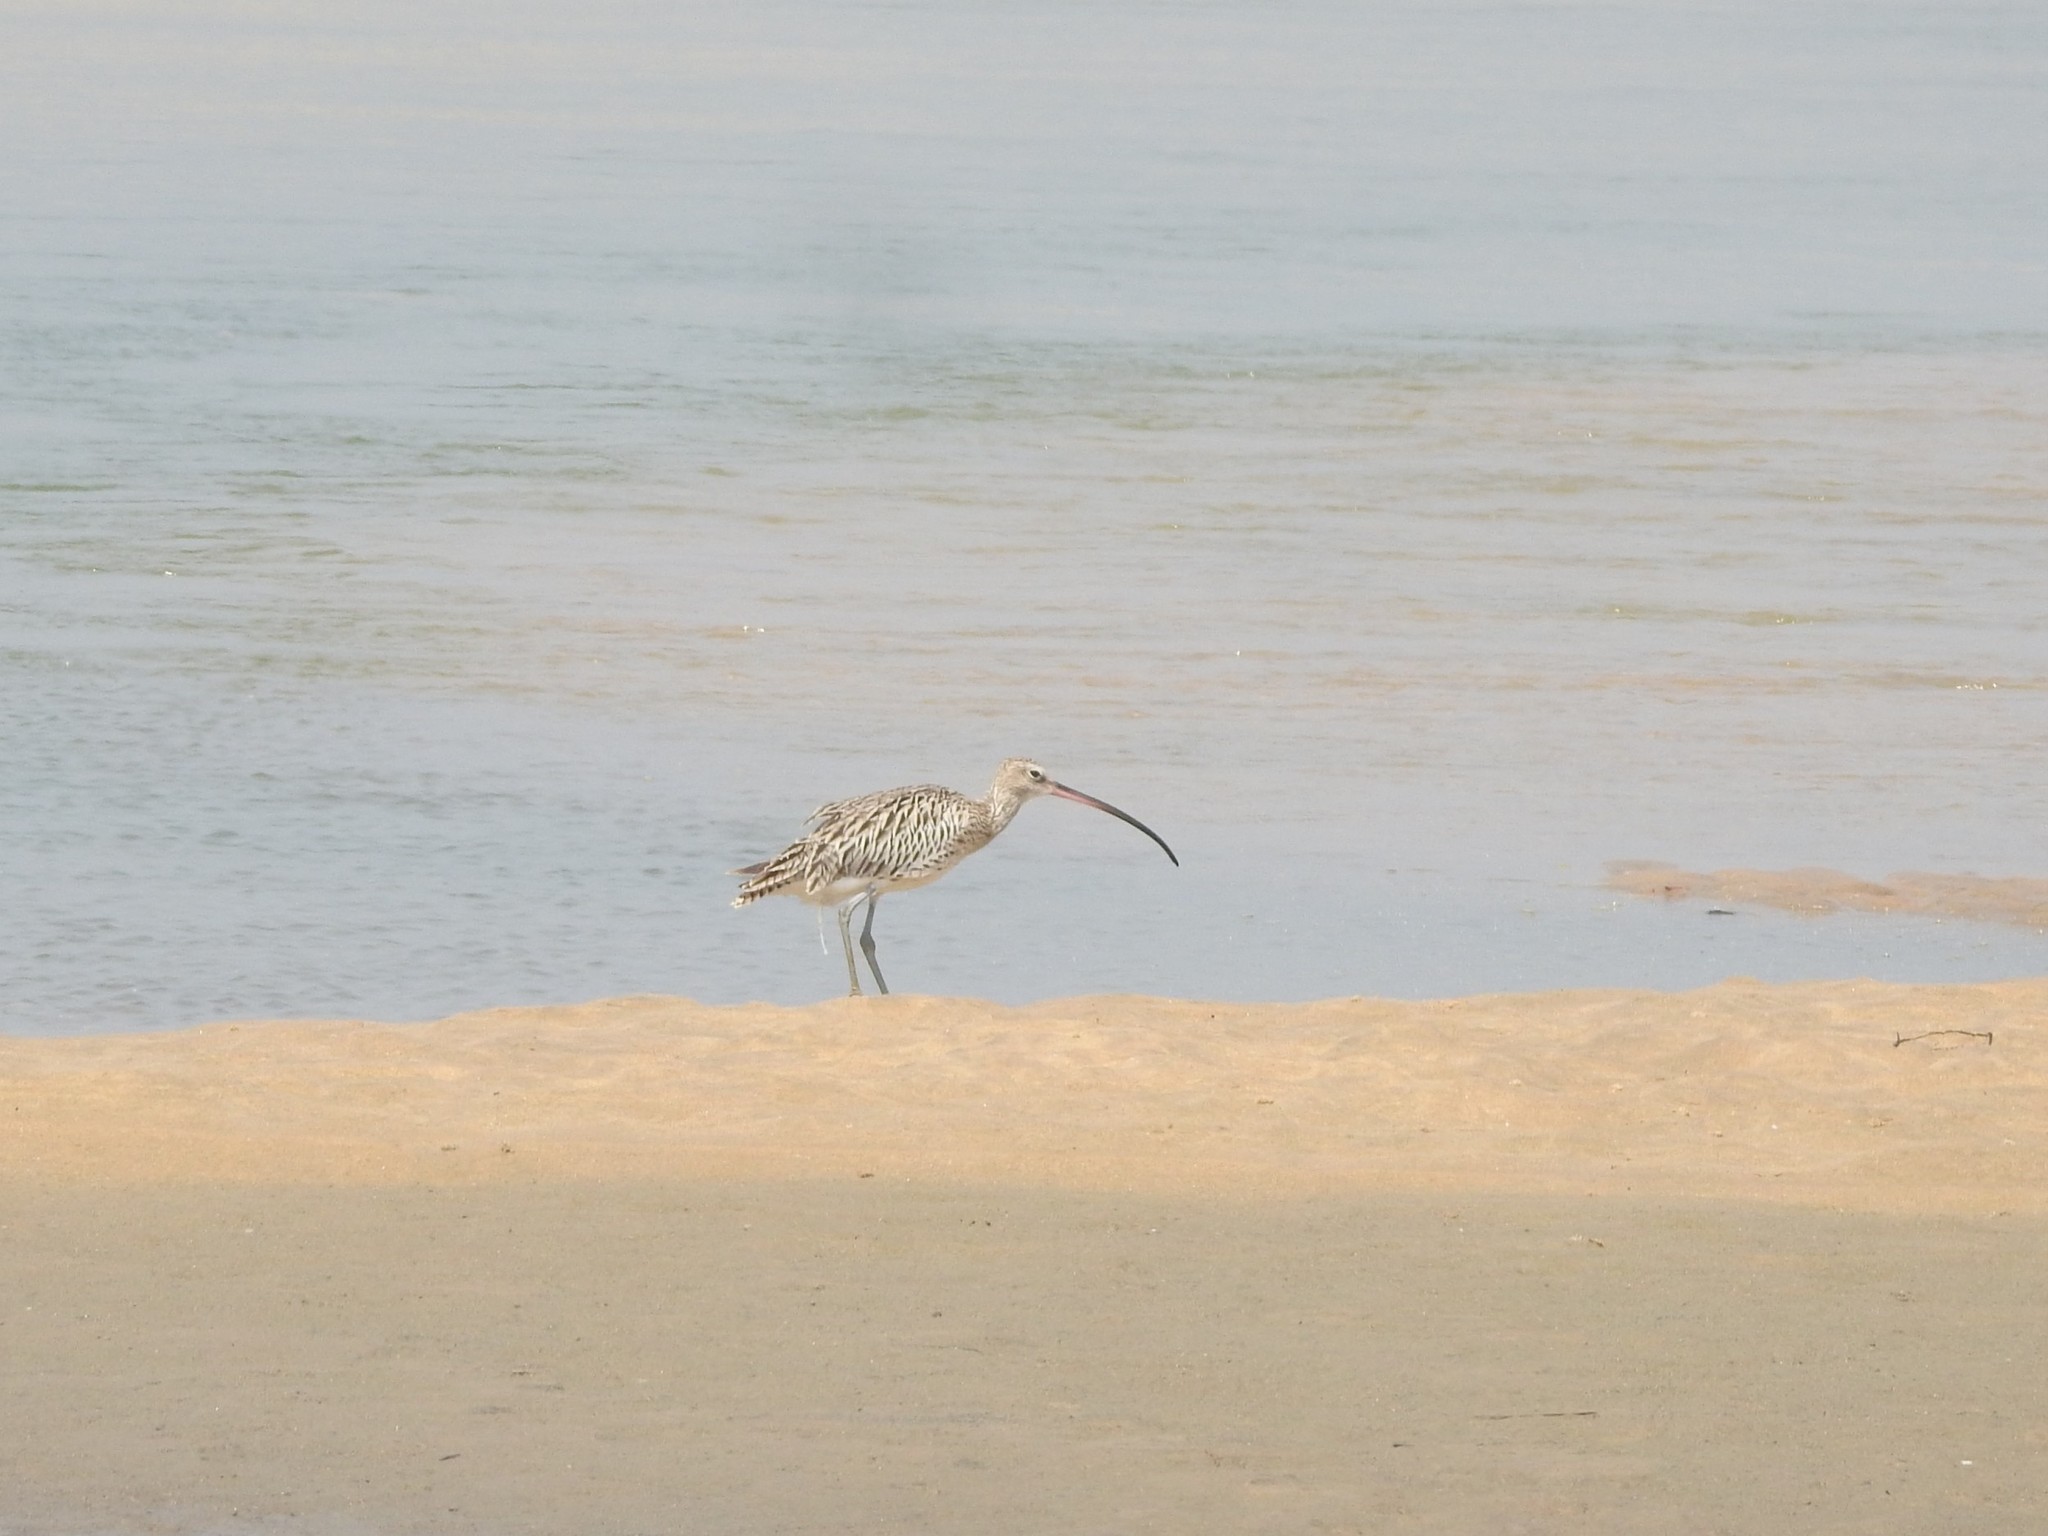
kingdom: Animalia
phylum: Chordata
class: Aves
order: Charadriiformes
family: Scolopacidae
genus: Numenius
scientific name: Numenius arquata
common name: Eurasian curlew
